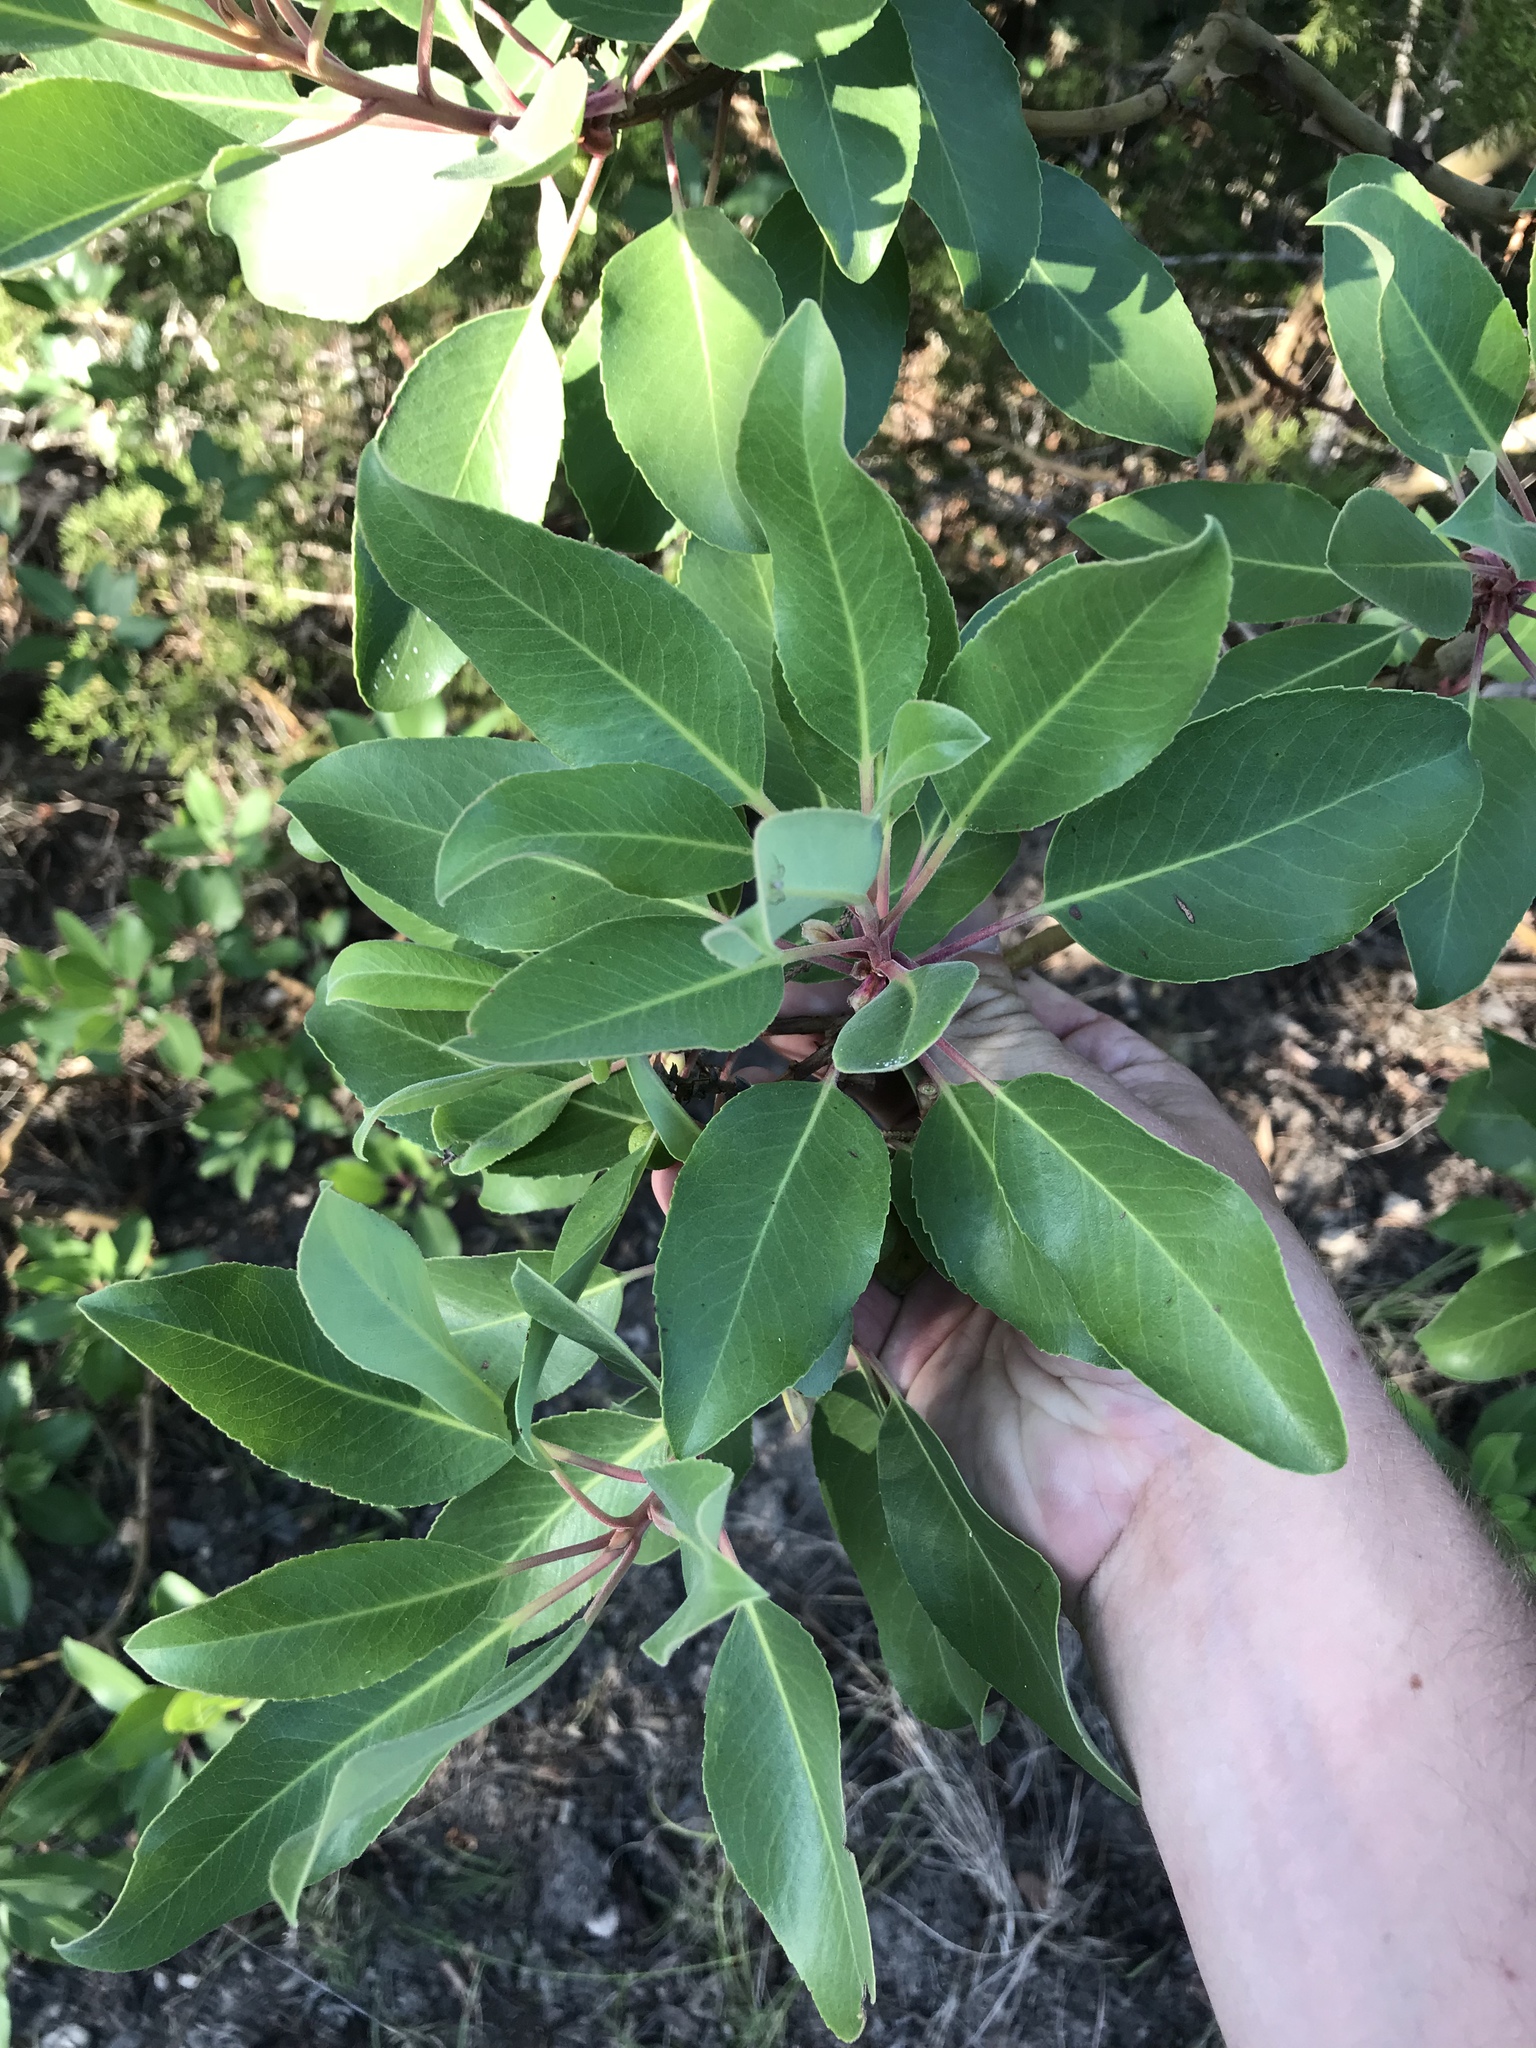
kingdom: Plantae
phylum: Tracheophyta
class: Magnoliopsida
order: Ericales
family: Ericaceae
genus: Arbutus
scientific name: Arbutus xalapensis
